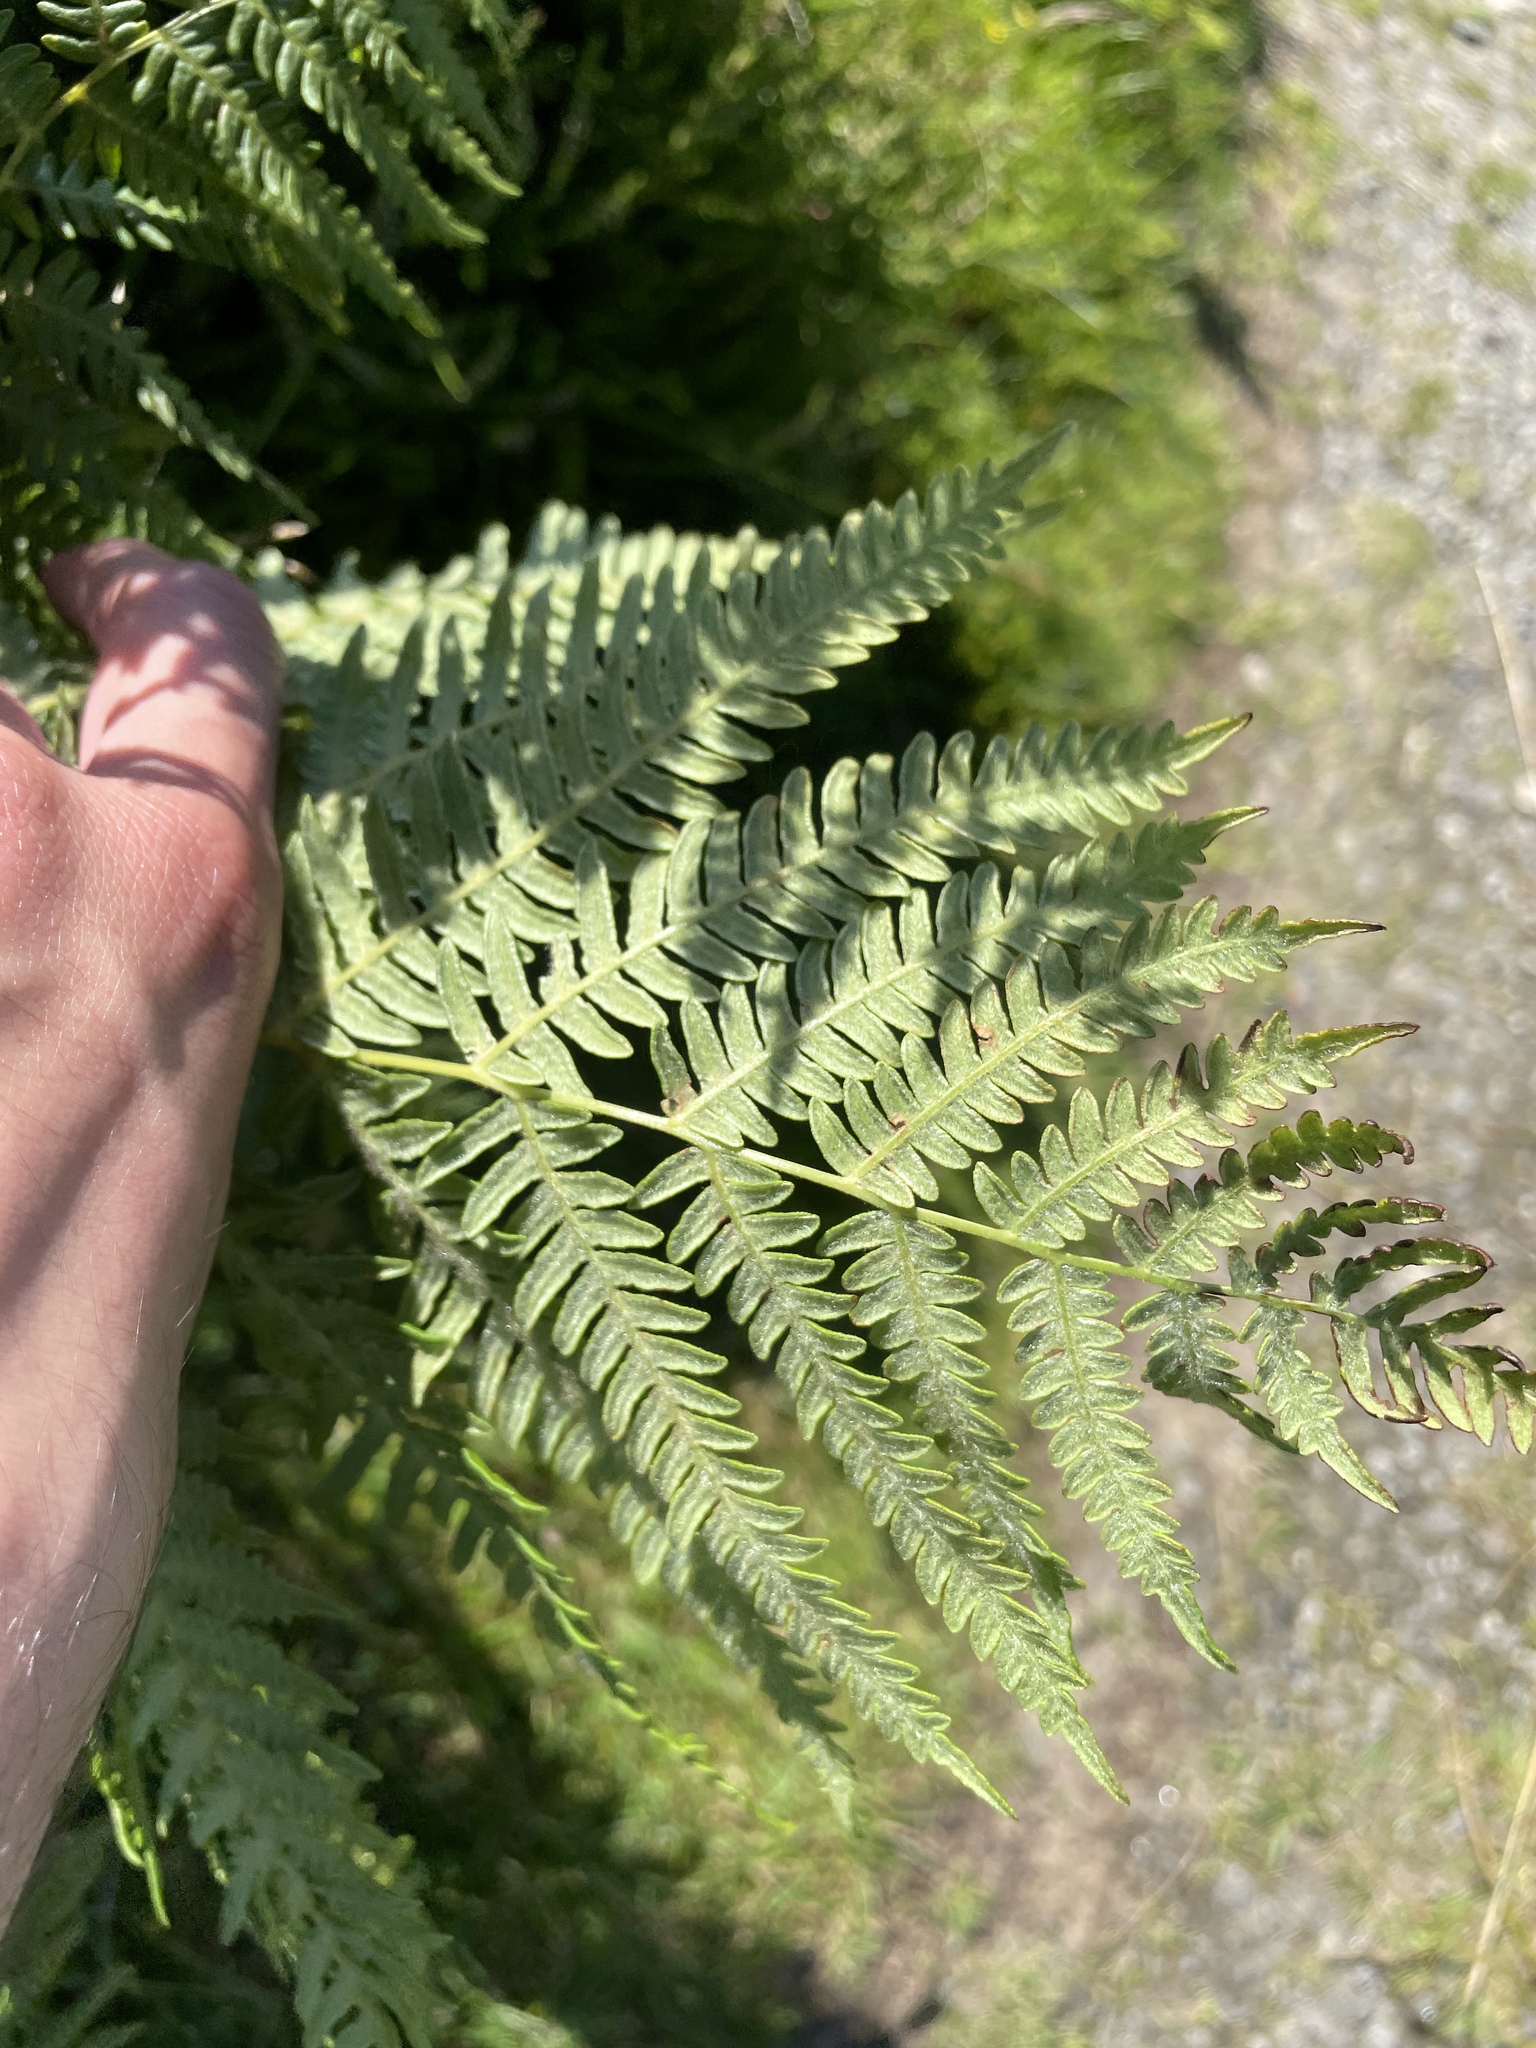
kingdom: Plantae
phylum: Tracheophyta
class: Polypodiopsida
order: Polypodiales
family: Dennstaedtiaceae
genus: Pteridium
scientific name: Pteridium aquilinum
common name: Bracken
